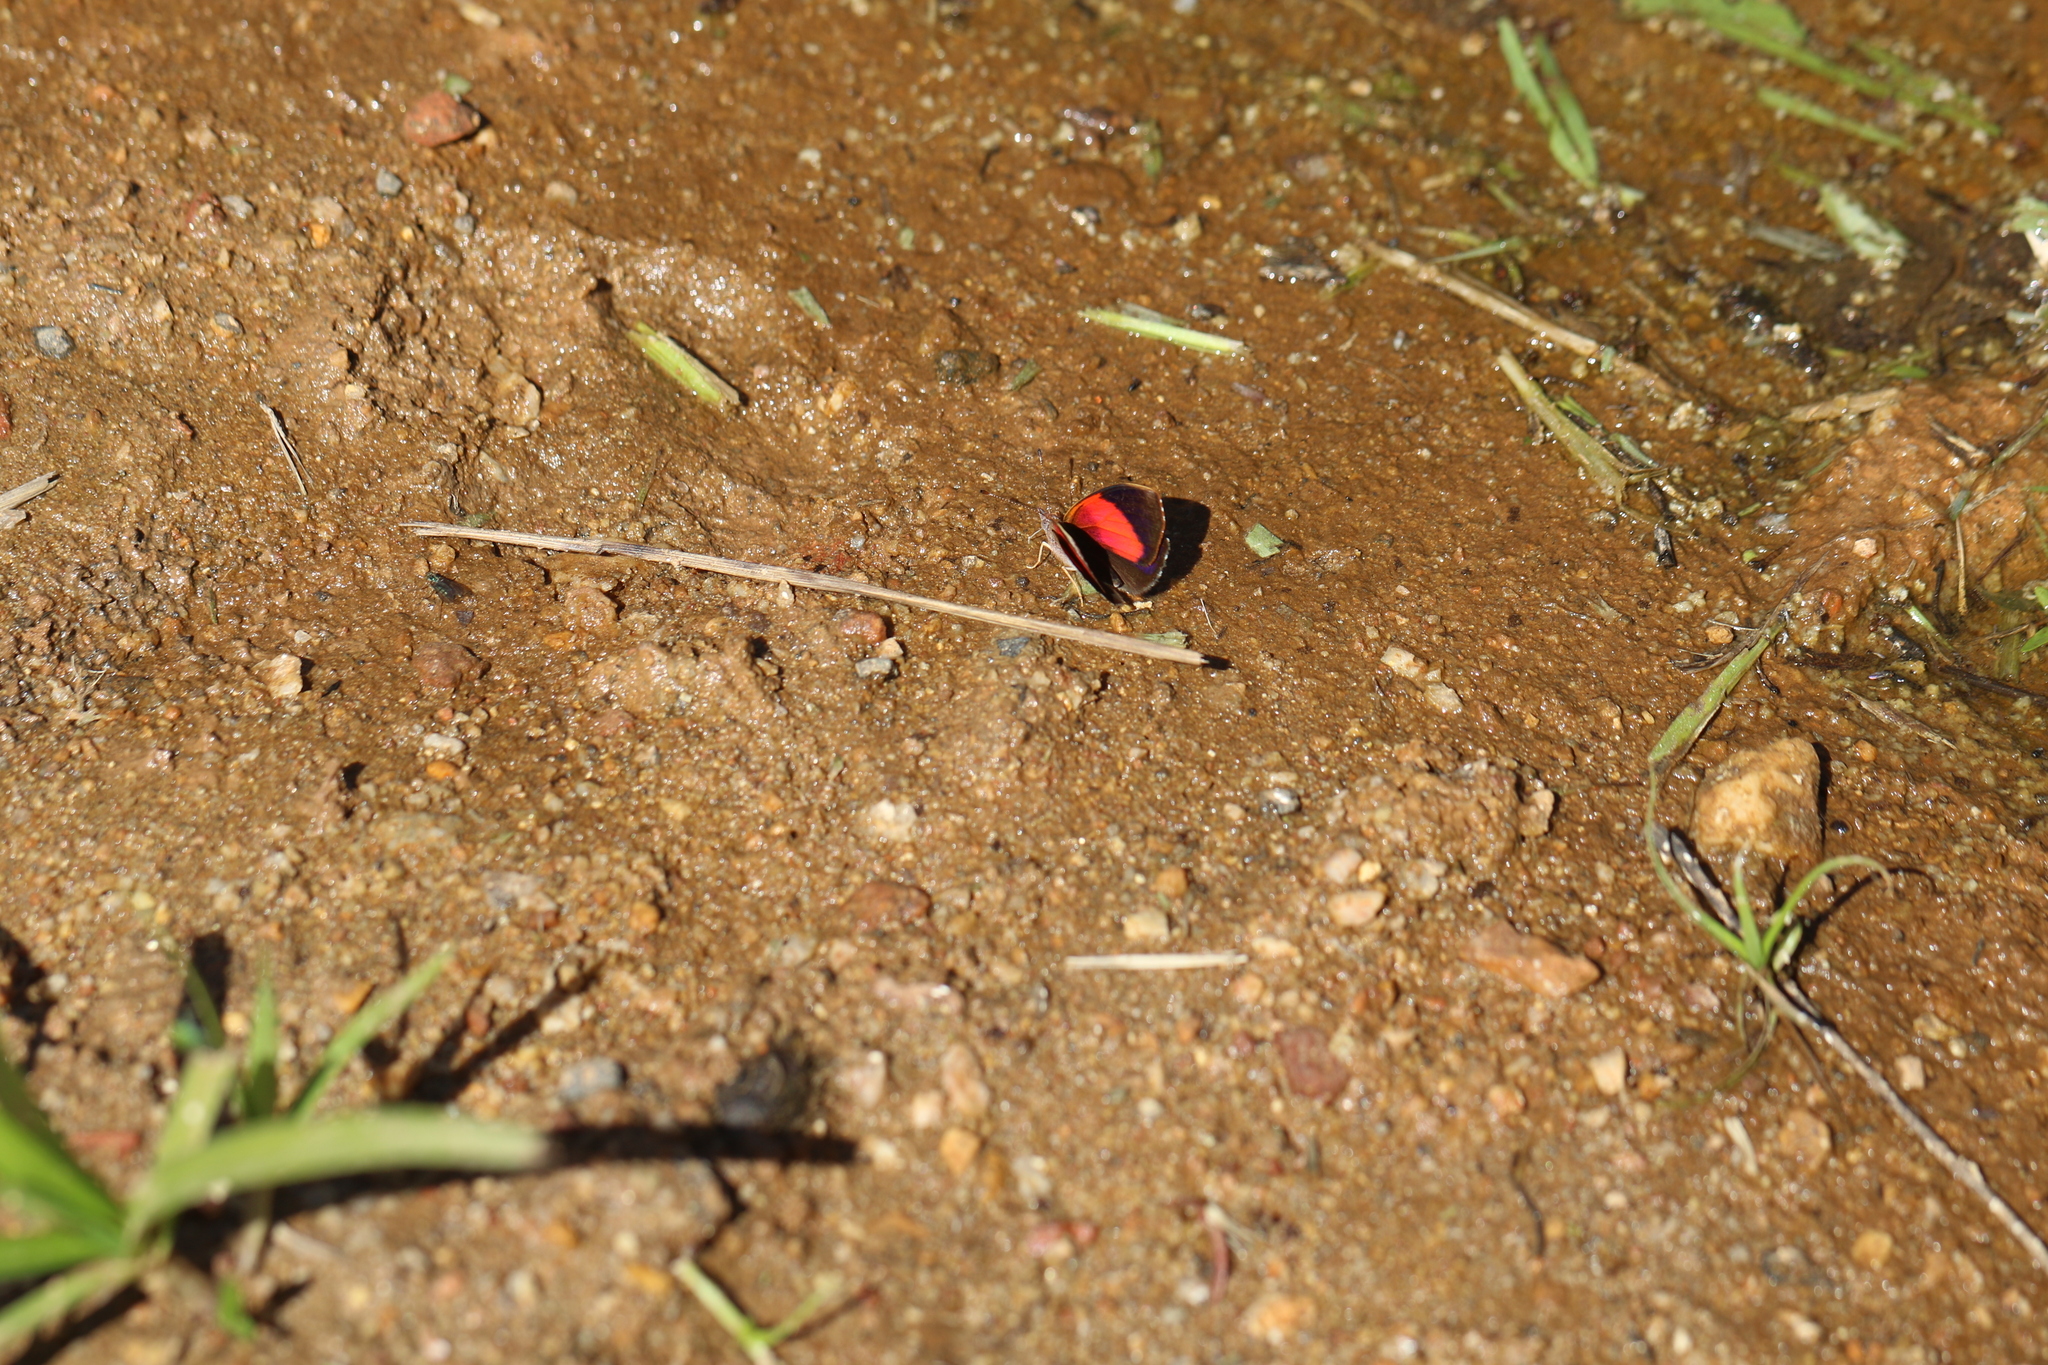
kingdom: Animalia
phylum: Arthropoda
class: Insecta
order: Lepidoptera
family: Nymphalidae
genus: Haematera
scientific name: Haematera pyrame
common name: Blind eighty-eight
